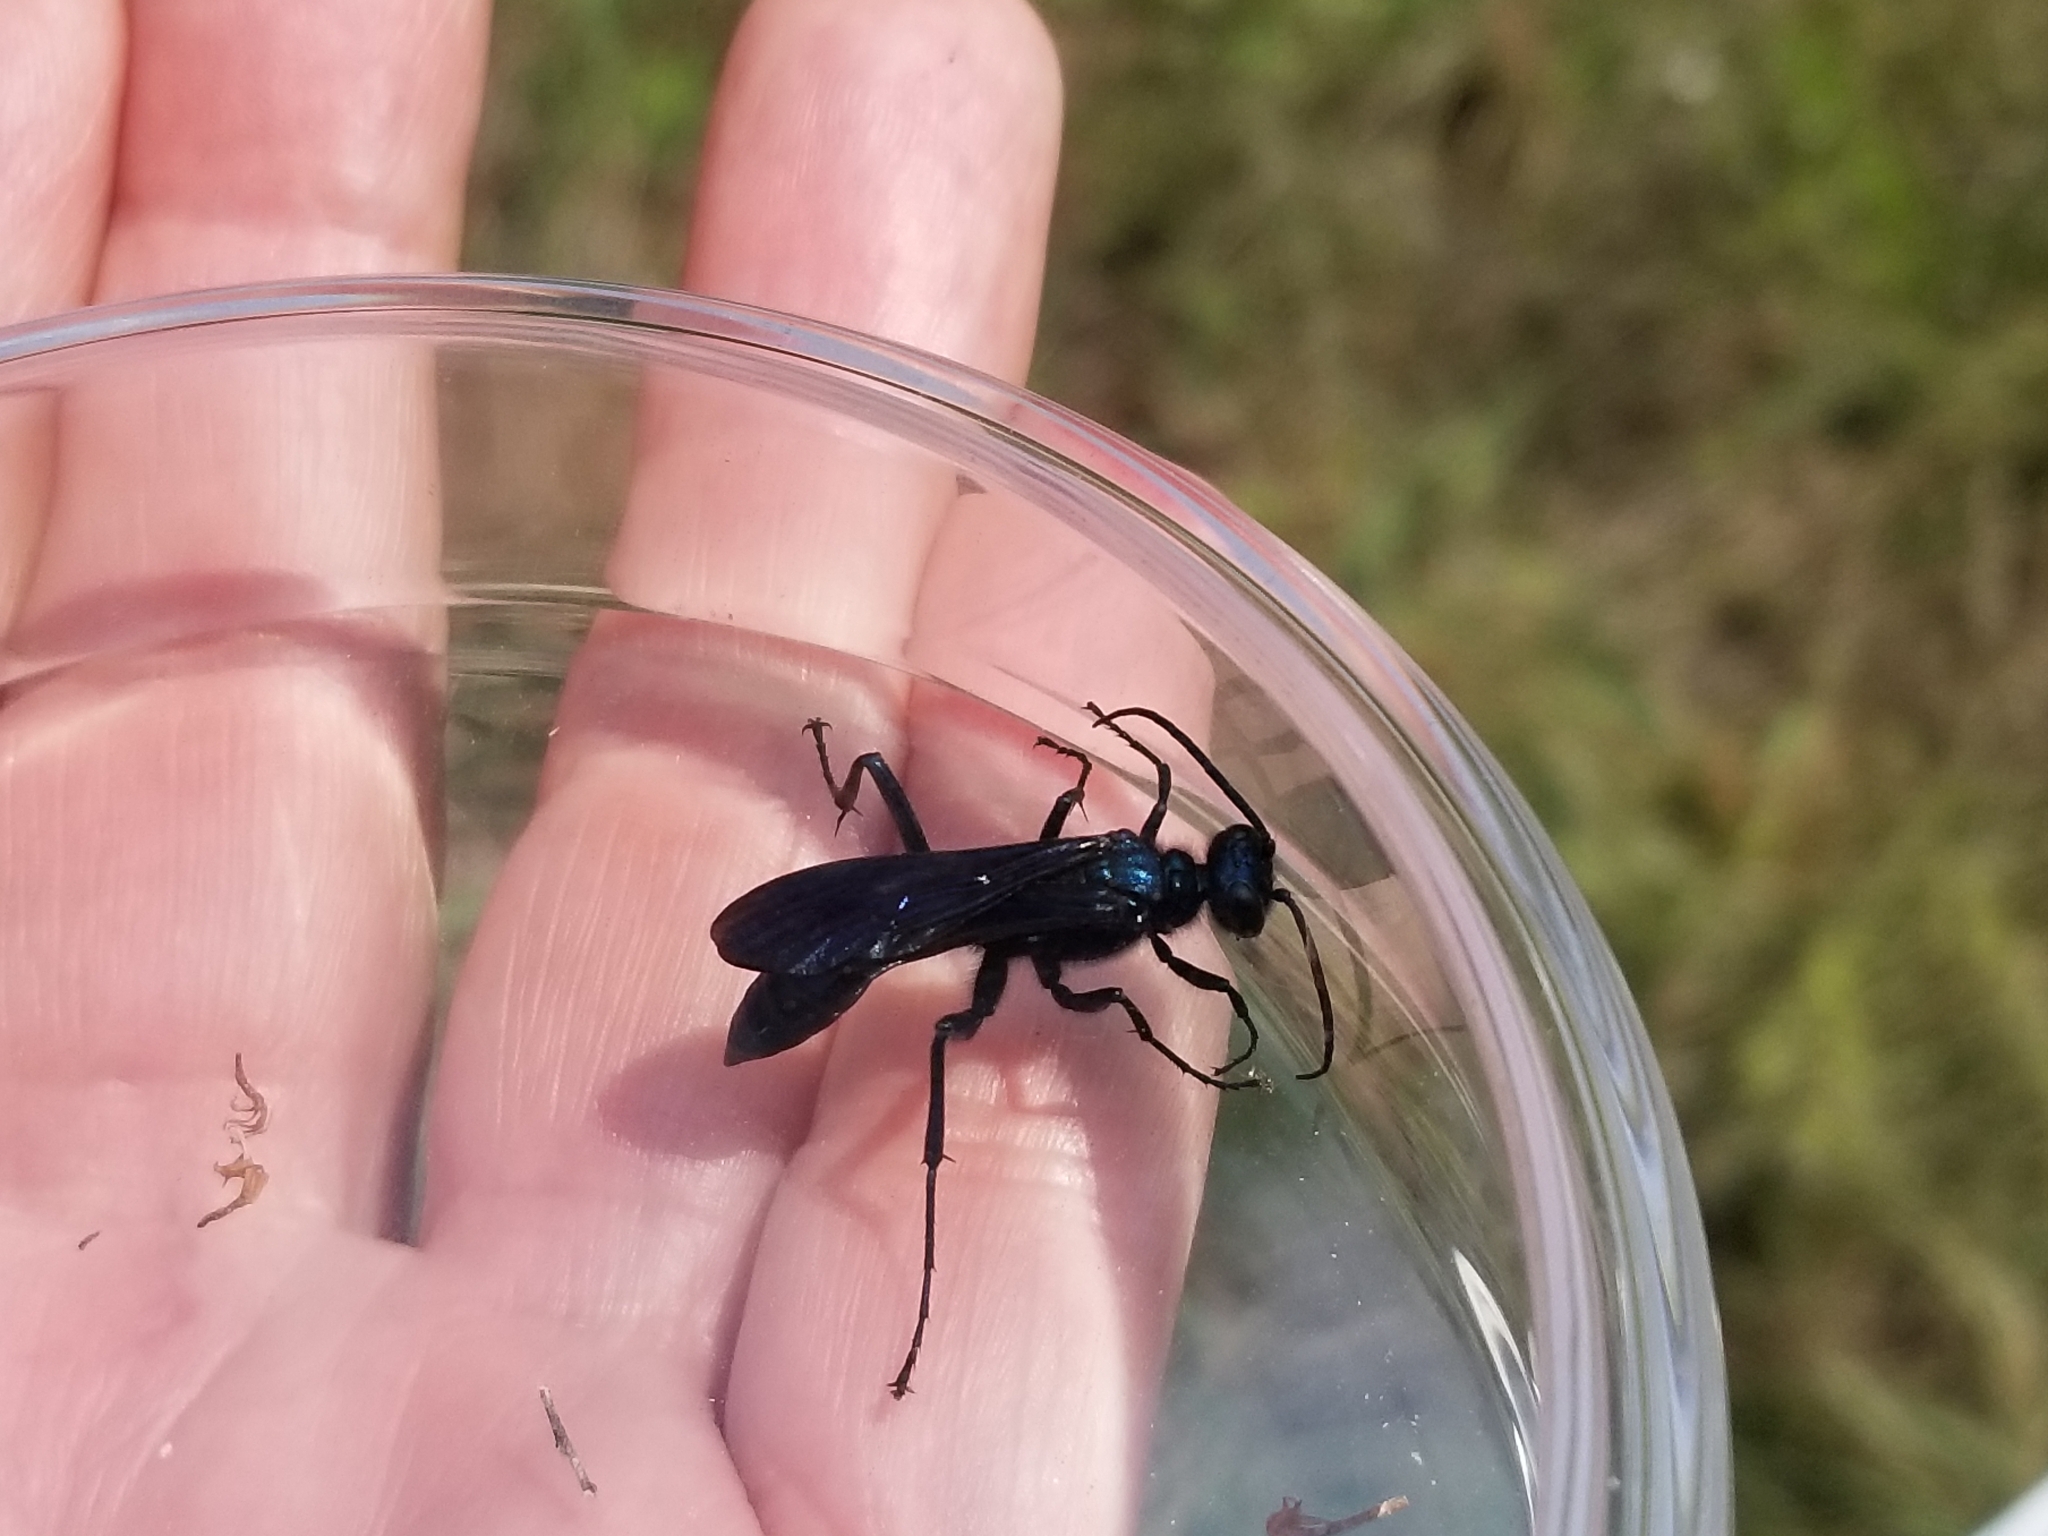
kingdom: Animalia
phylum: Arthropoda
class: Insecta
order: Hymenoptera
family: Sphecidae
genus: Chalybion
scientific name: Chalybion californicum
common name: Mud dauber
